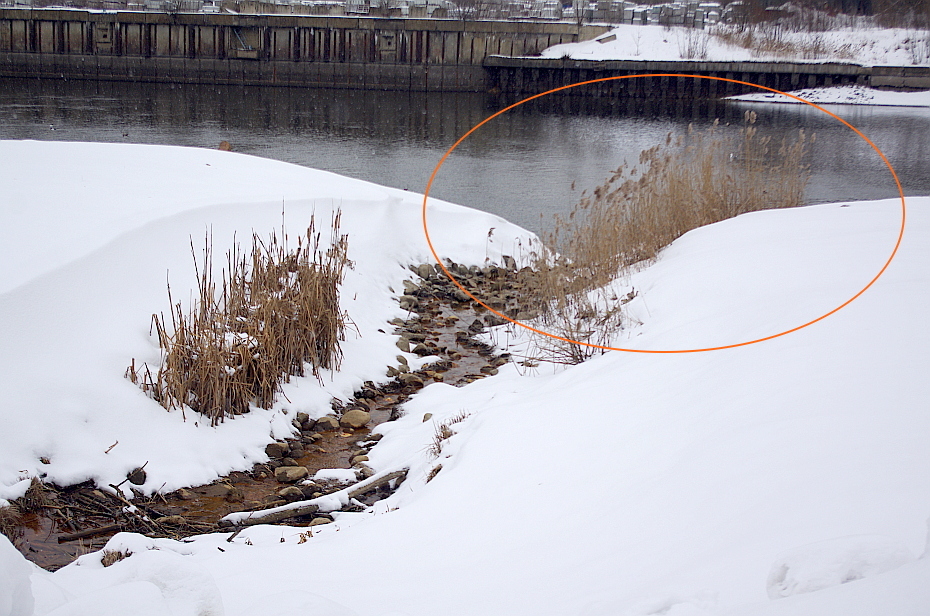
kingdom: Plantae
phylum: Tracheophyta
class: Liliopsida
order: Poales
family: Poaceae
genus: Phragmites
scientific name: Phragmites australis
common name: Common reed
